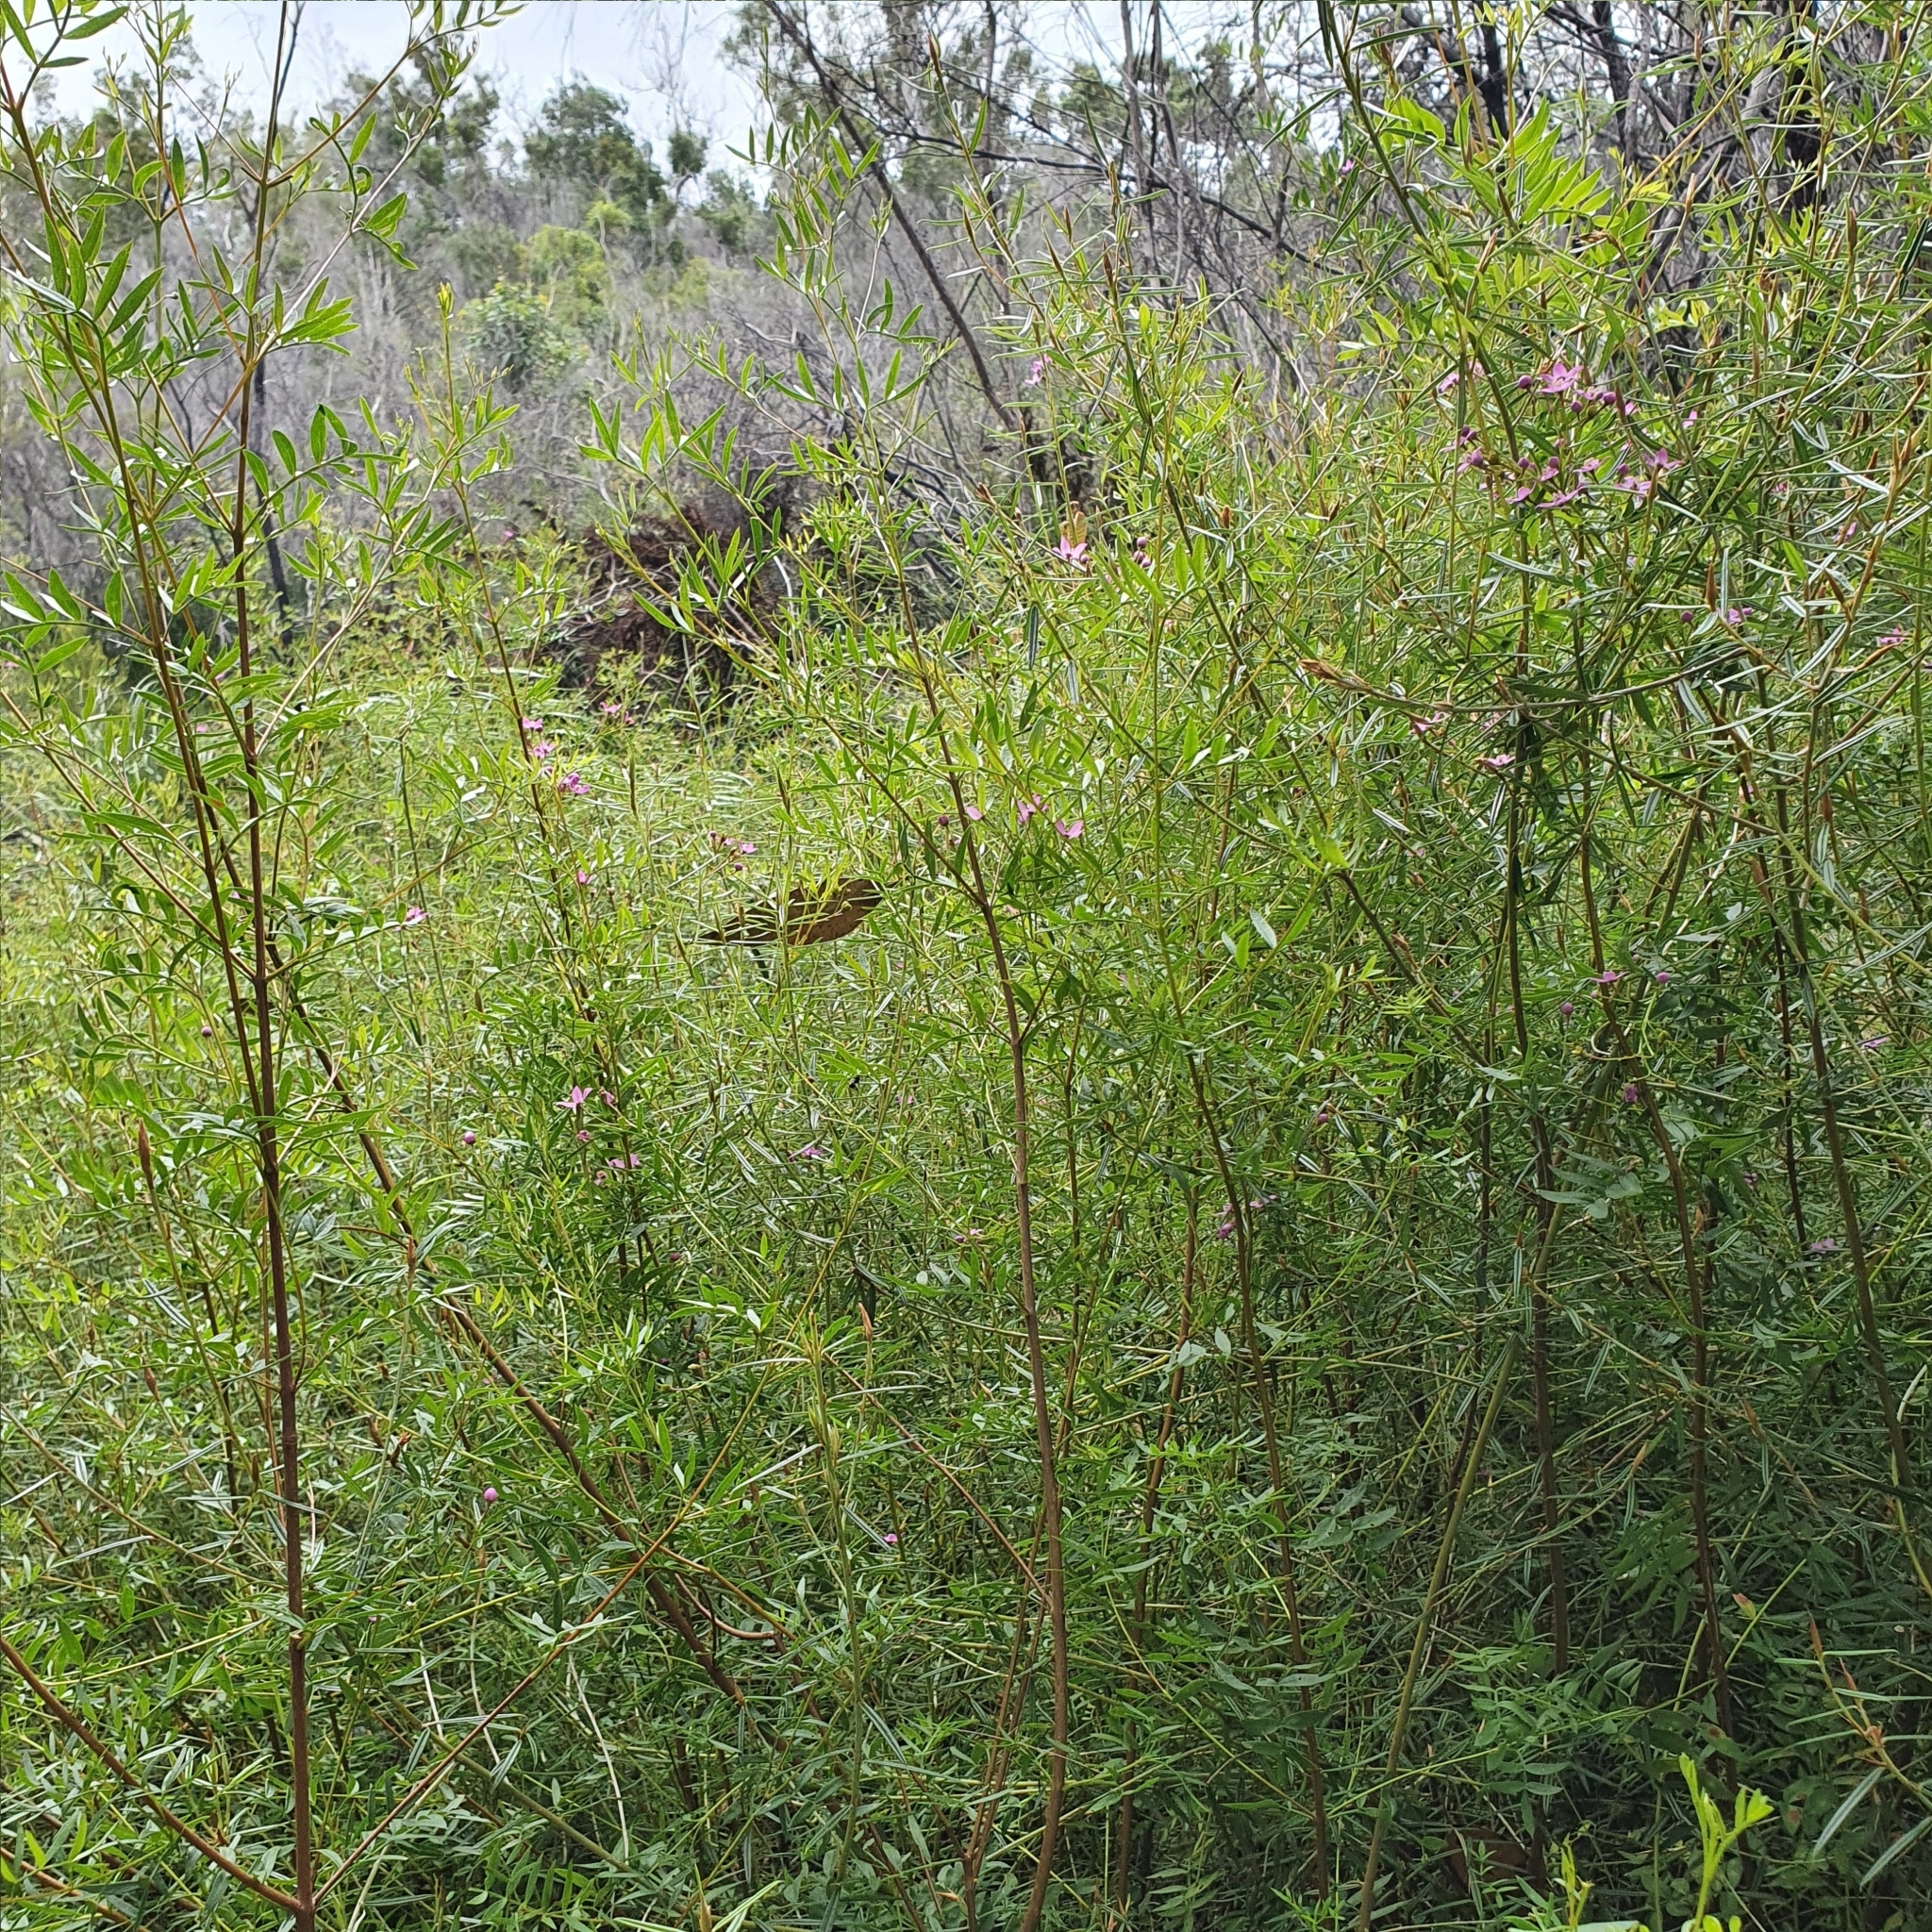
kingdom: Plantae
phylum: Tracheophyta
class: Magnoliopsida
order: Sapindales
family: Rutaceae
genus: Boronia
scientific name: Boronia rivularis
